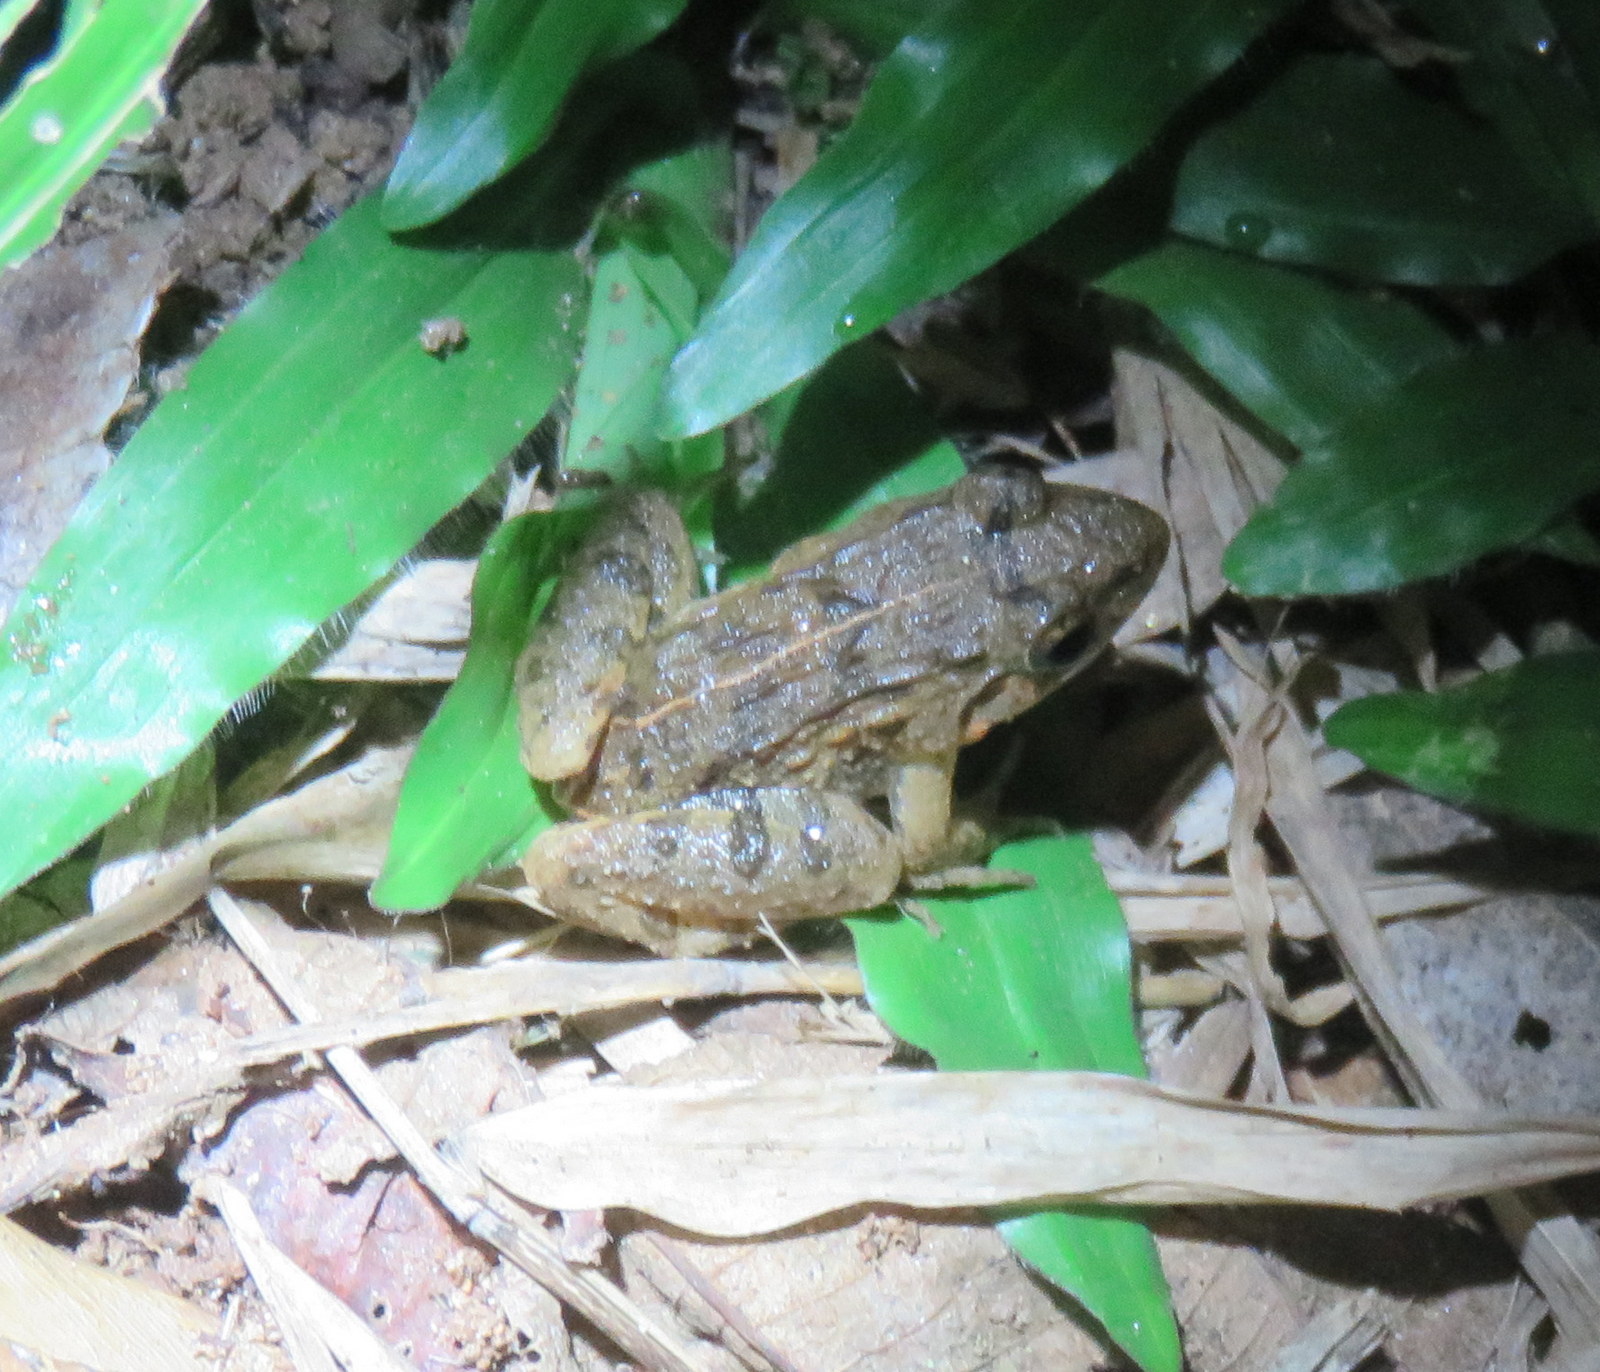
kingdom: Animalia
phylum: Chordata
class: Amphibia
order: Anura
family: Dicroglossidae
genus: Fejervarya
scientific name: Fejervarya limnocharis
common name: Asian grass frog/common pond frog/field frog/grass frog/indian rice frog
